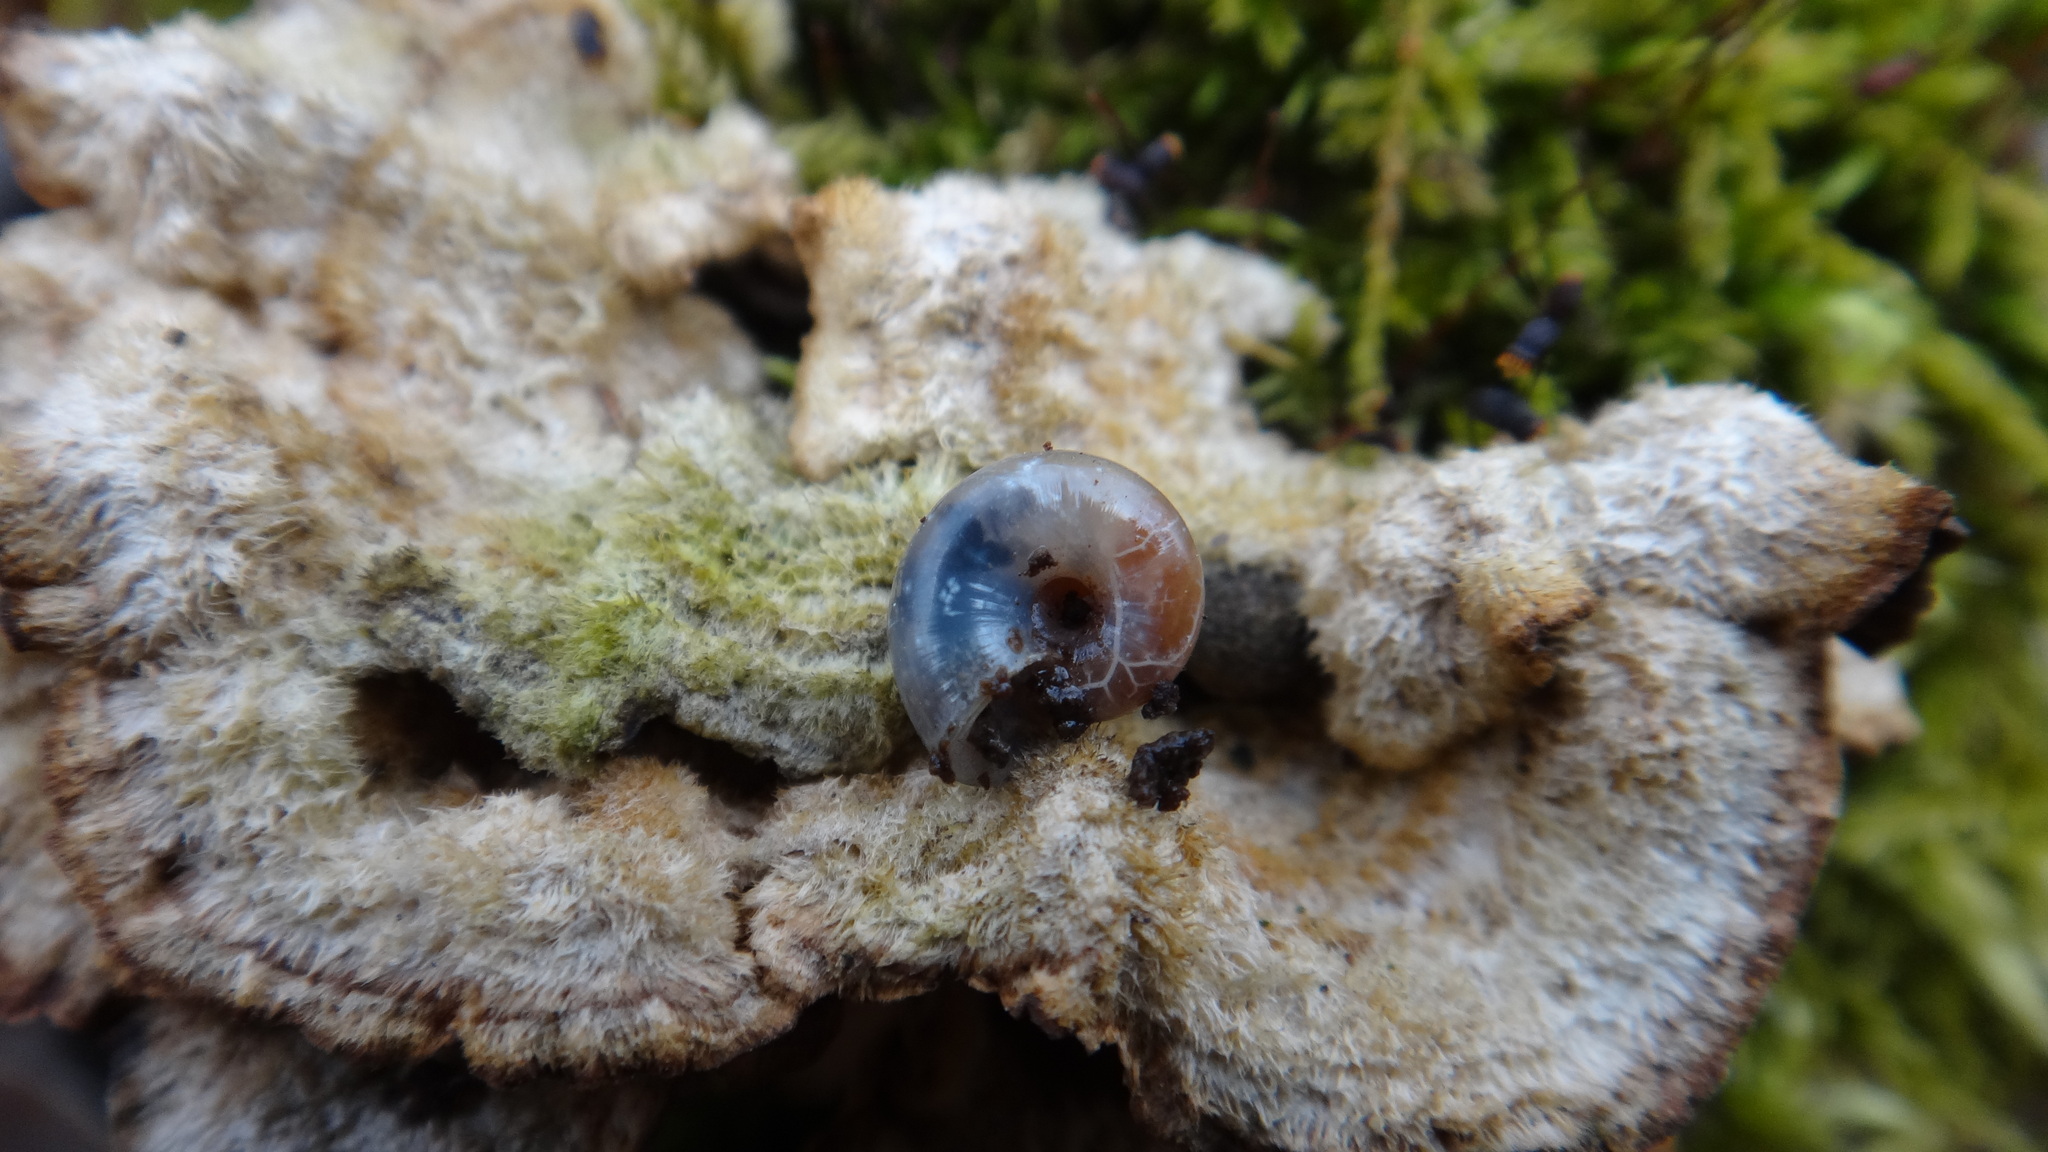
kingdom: Animalia
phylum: Mollusca
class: Gastropoda
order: Stylommatophora
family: Gastrodontidae
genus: Aegopinella
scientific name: Aegopinella minor
